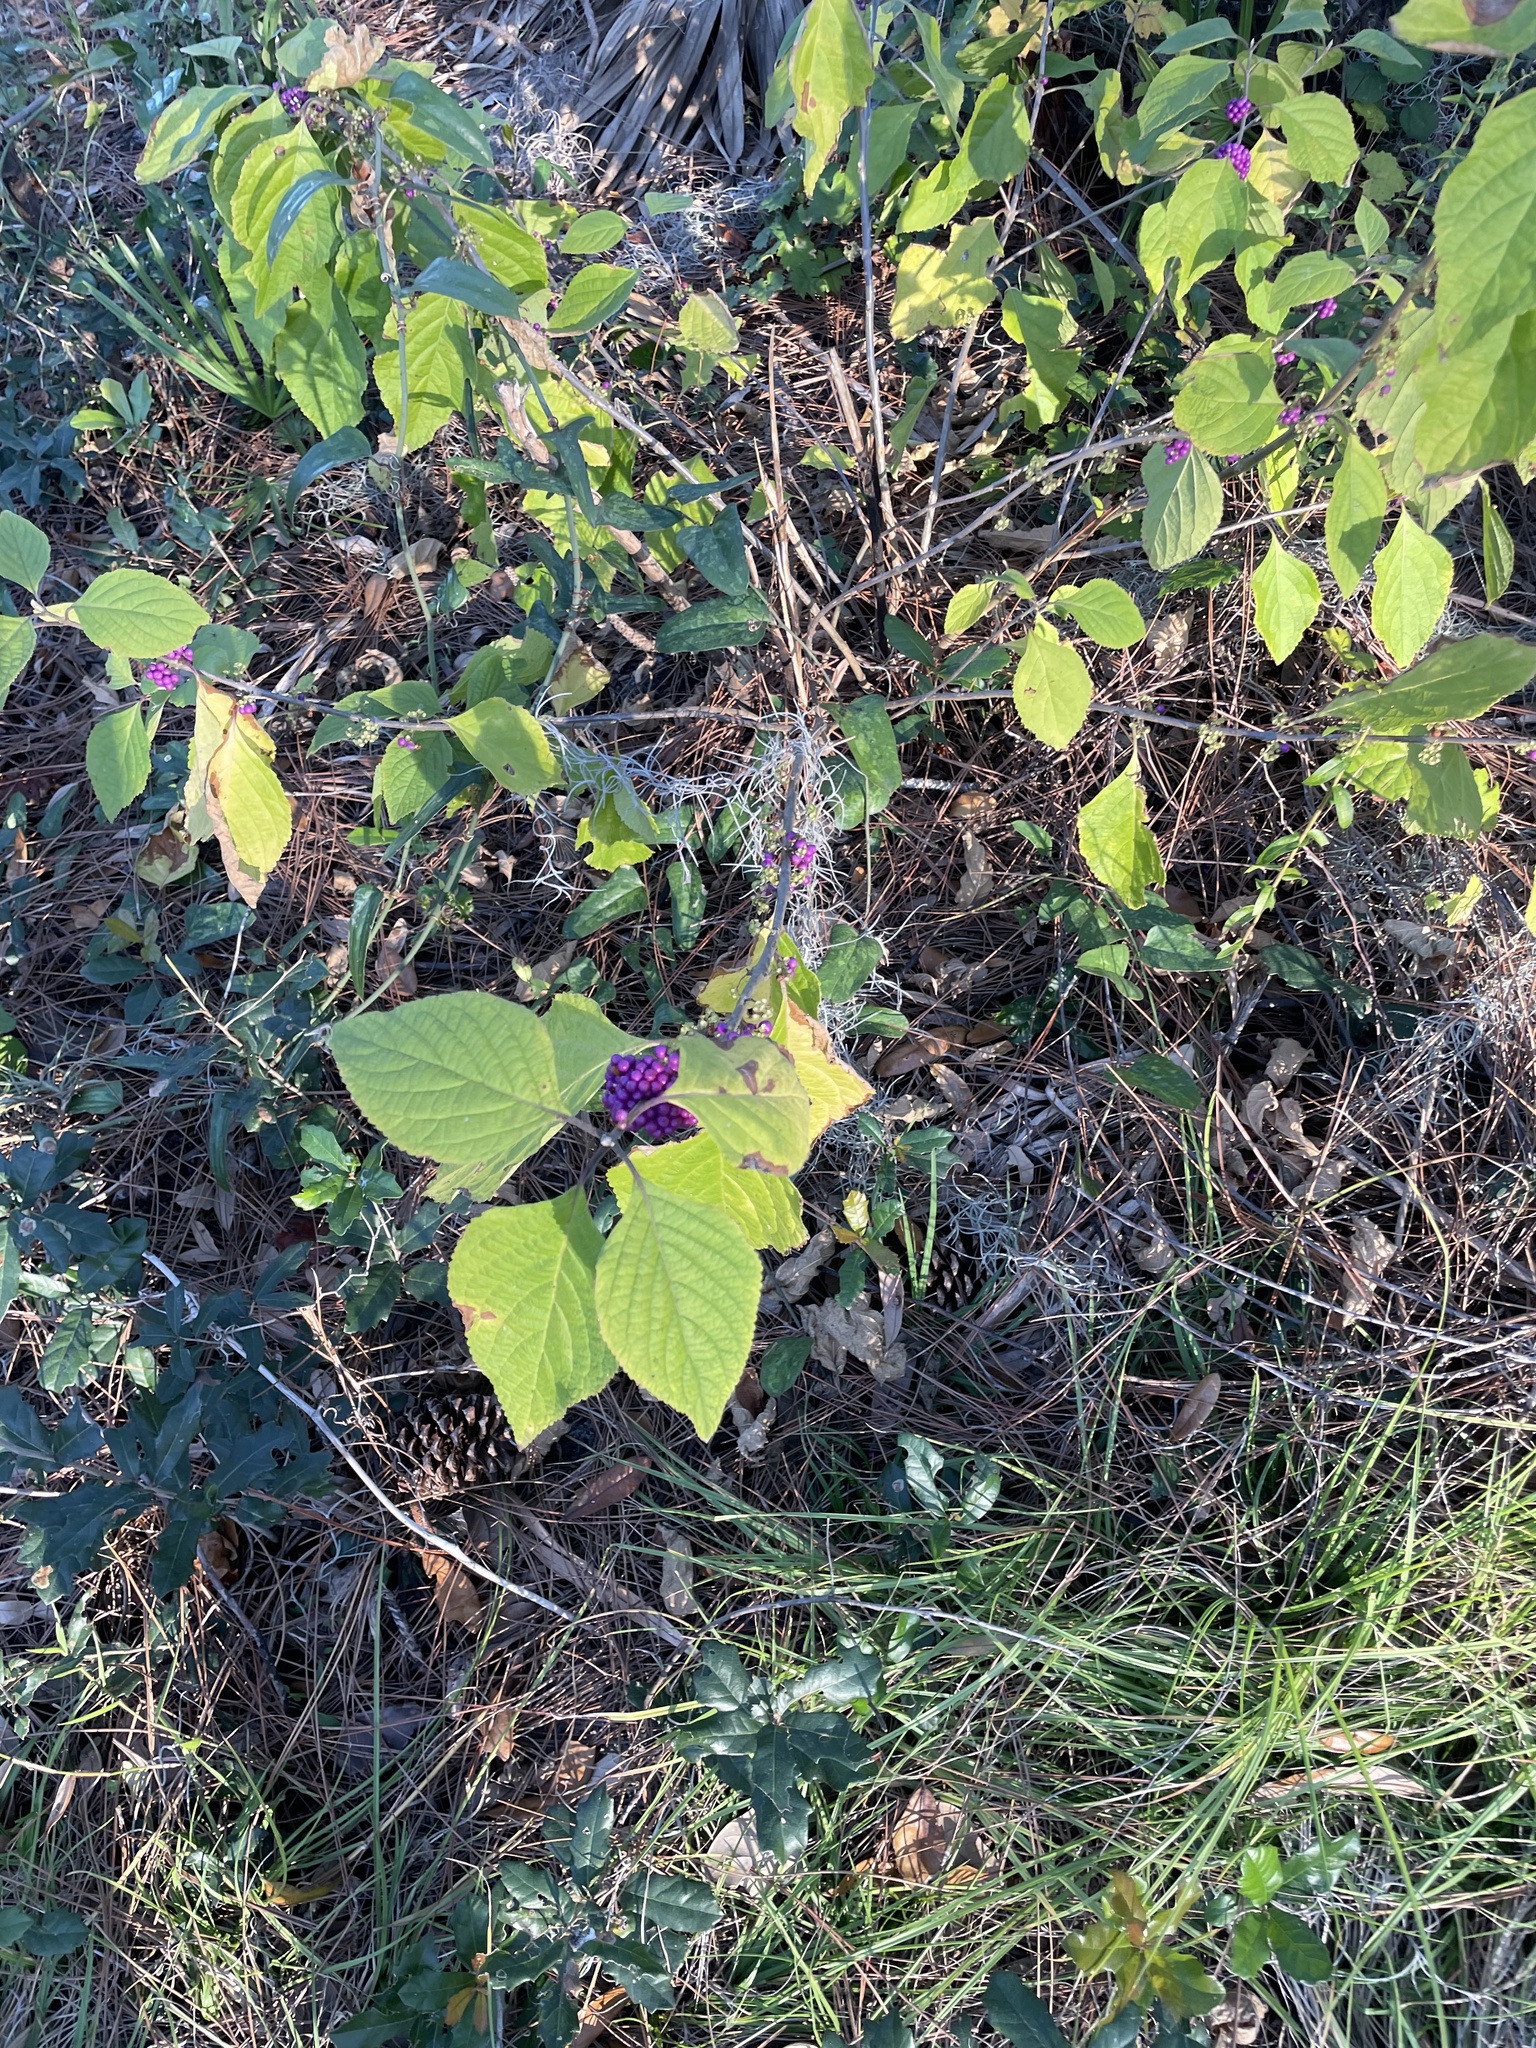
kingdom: Plantae
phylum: Tracheophyta
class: Magnoliopsida
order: Lamiales
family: Lamiaceae
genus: Callicarpa
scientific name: Callicarpa americana
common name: American beautyberry
